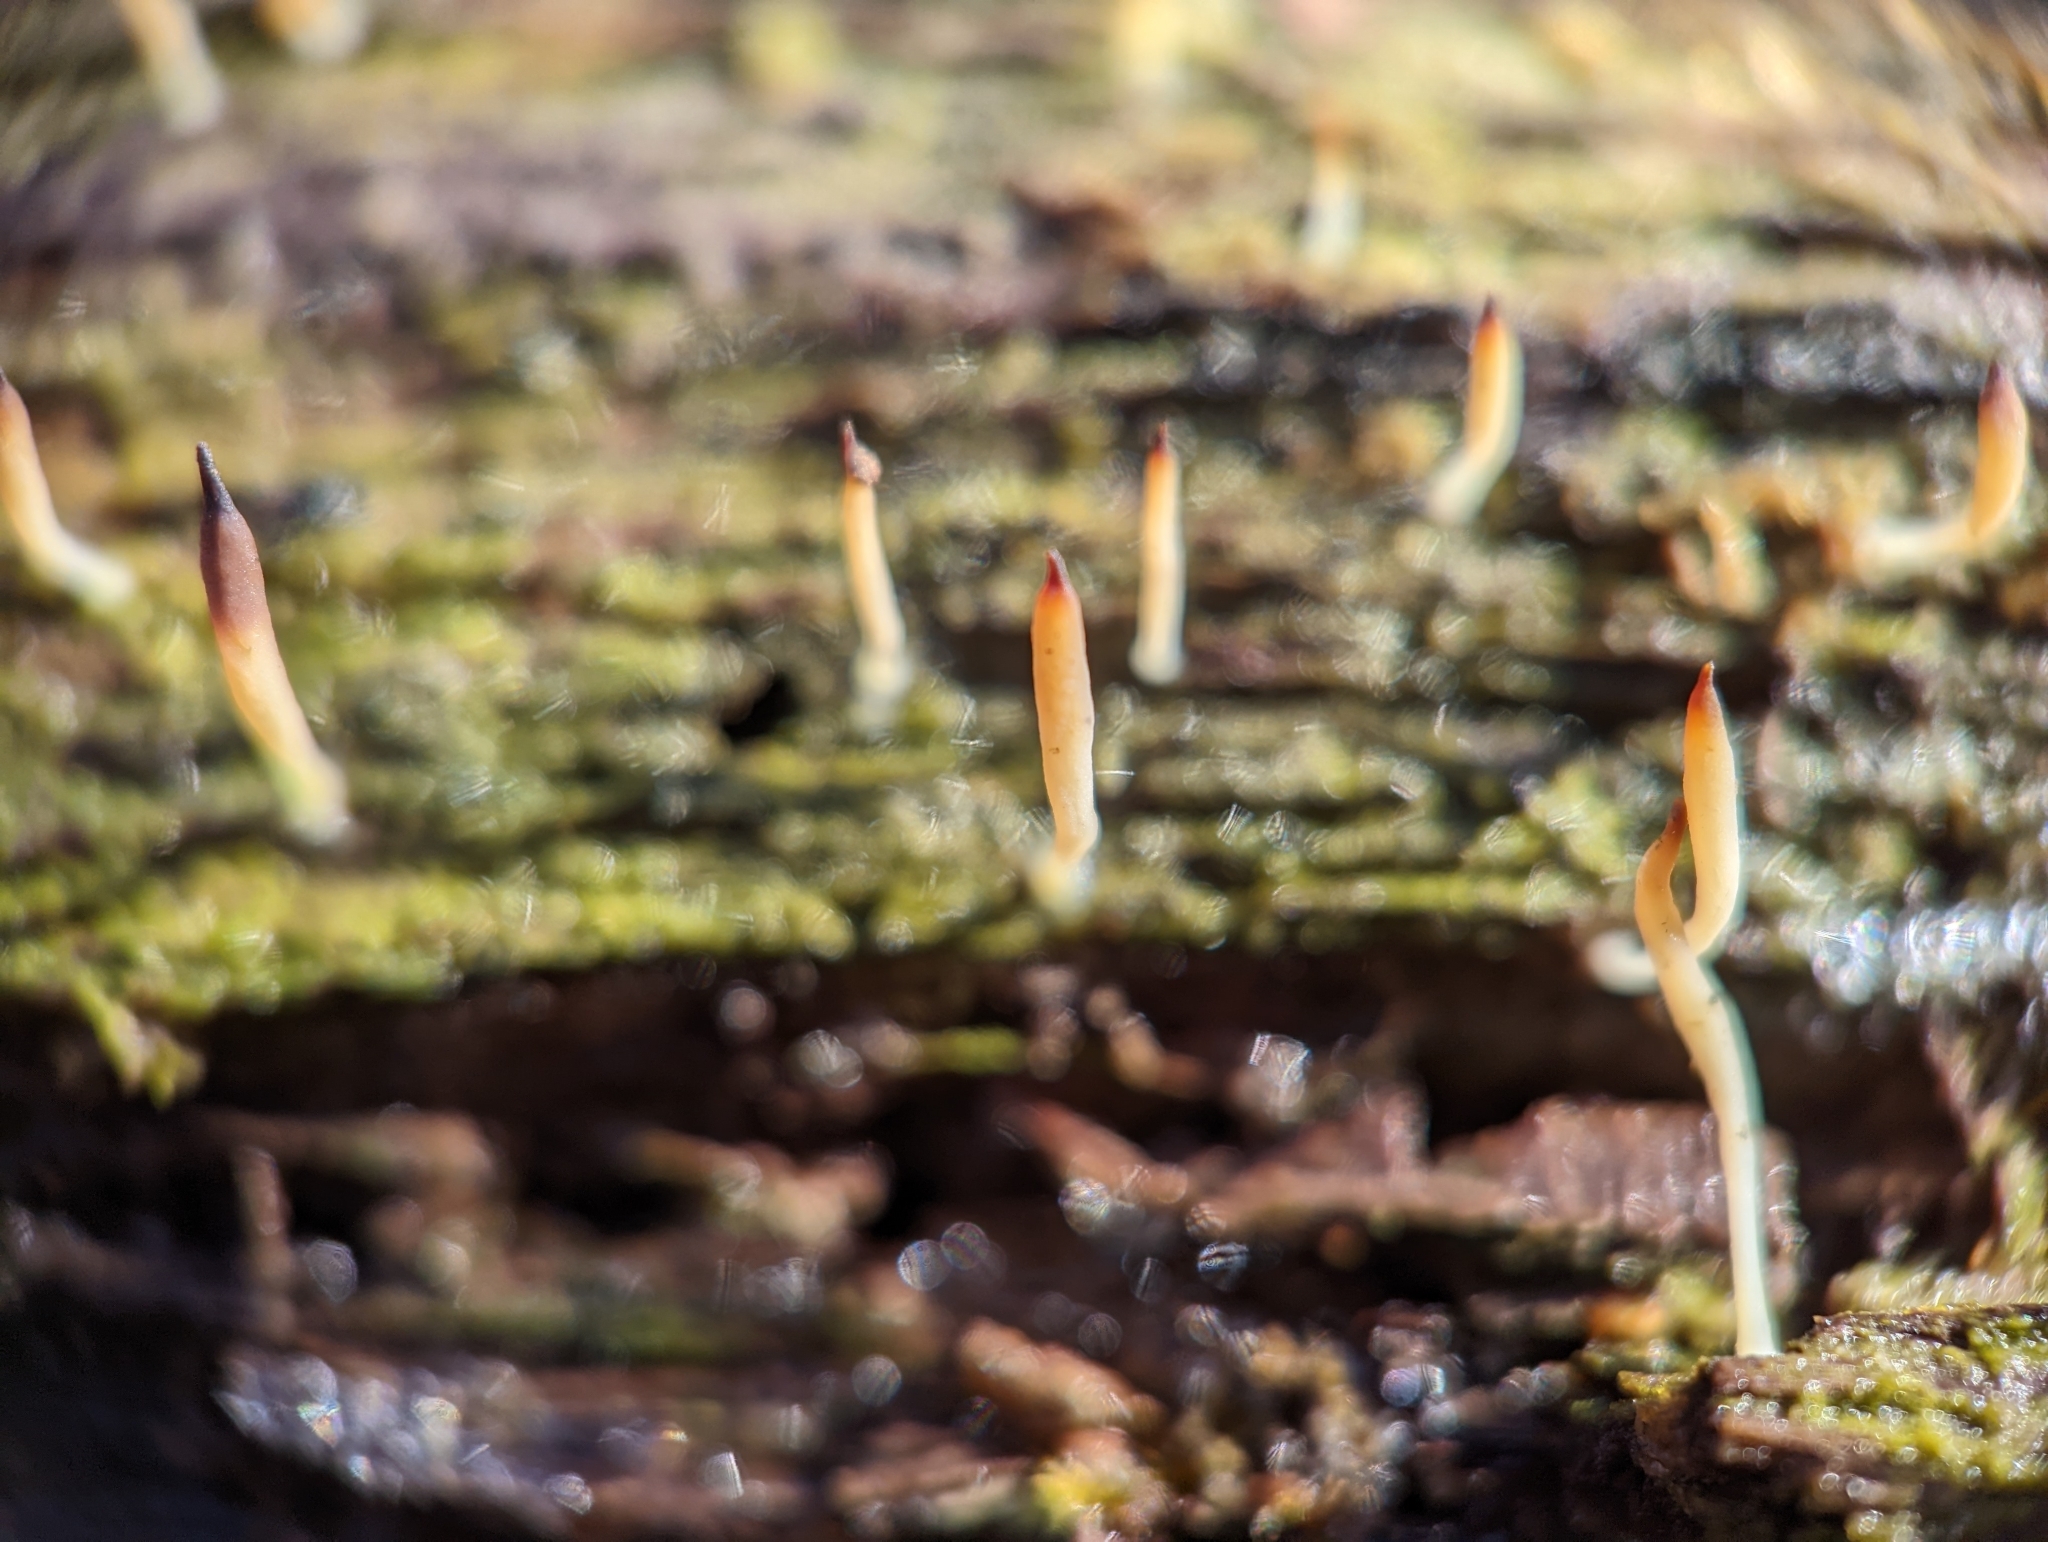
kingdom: Fungi
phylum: Basidiomycota
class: Agaricomycetes
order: Cantharellales
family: Hydnaceae
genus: Multiclavula
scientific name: Multiclavula mucida
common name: White green-algae coral
